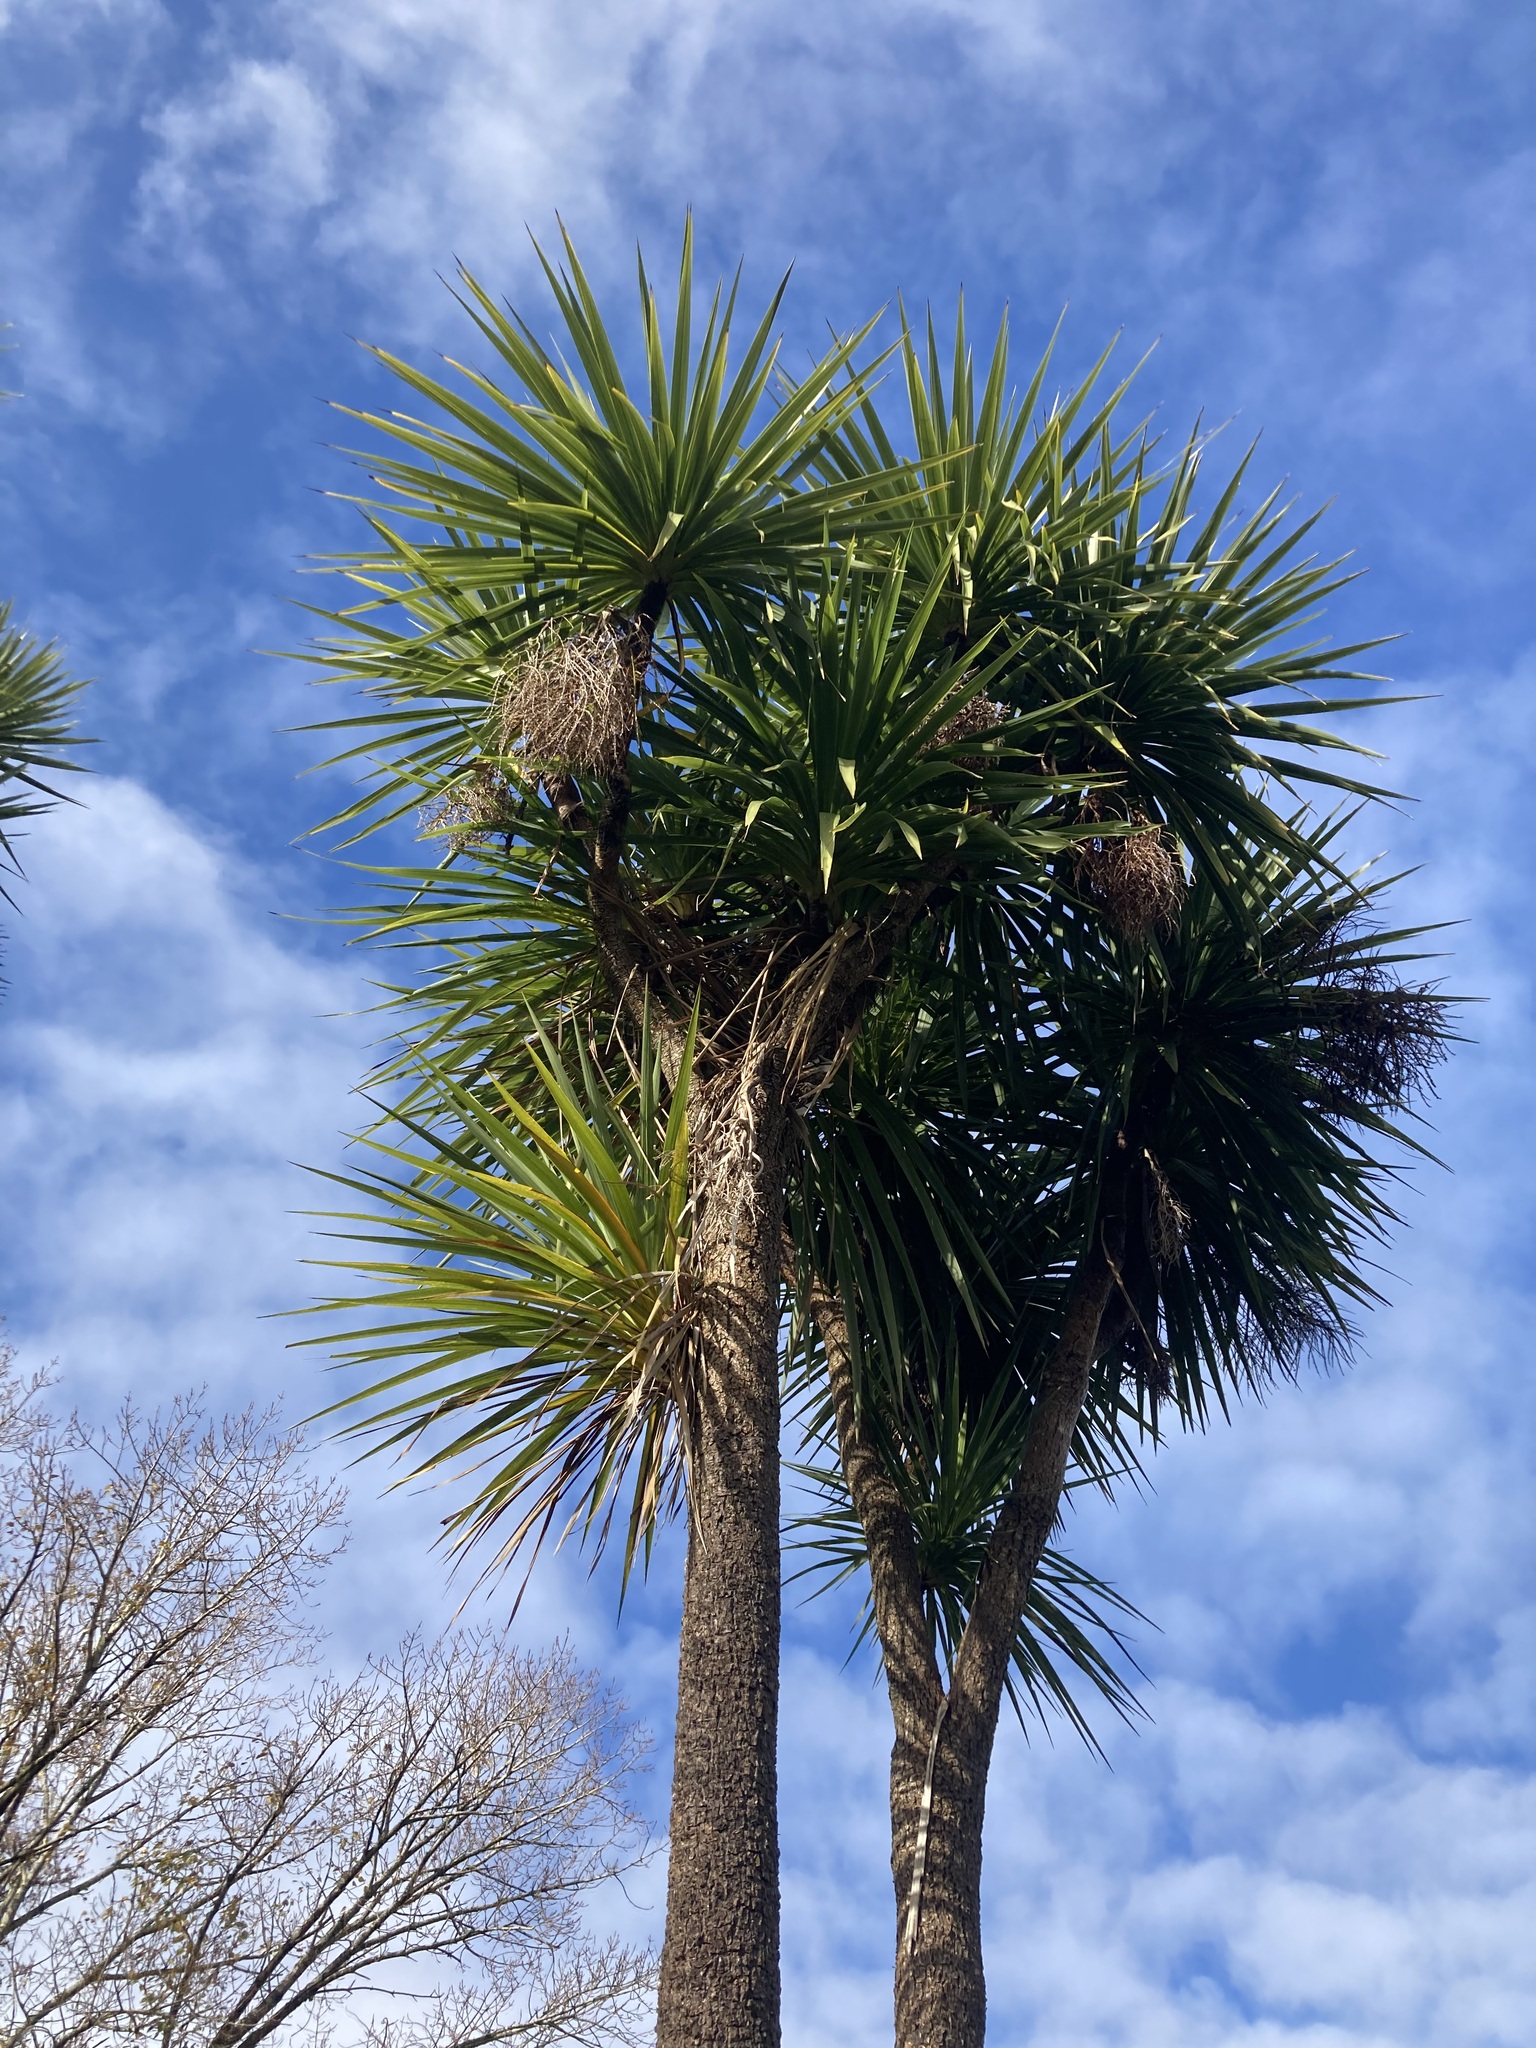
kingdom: Plantae
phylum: Tracheophyta
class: Liliopsida
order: Asparagales
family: Asparagaceae
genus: Cordyline
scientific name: Cordyline australis
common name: Cabbage-palm
